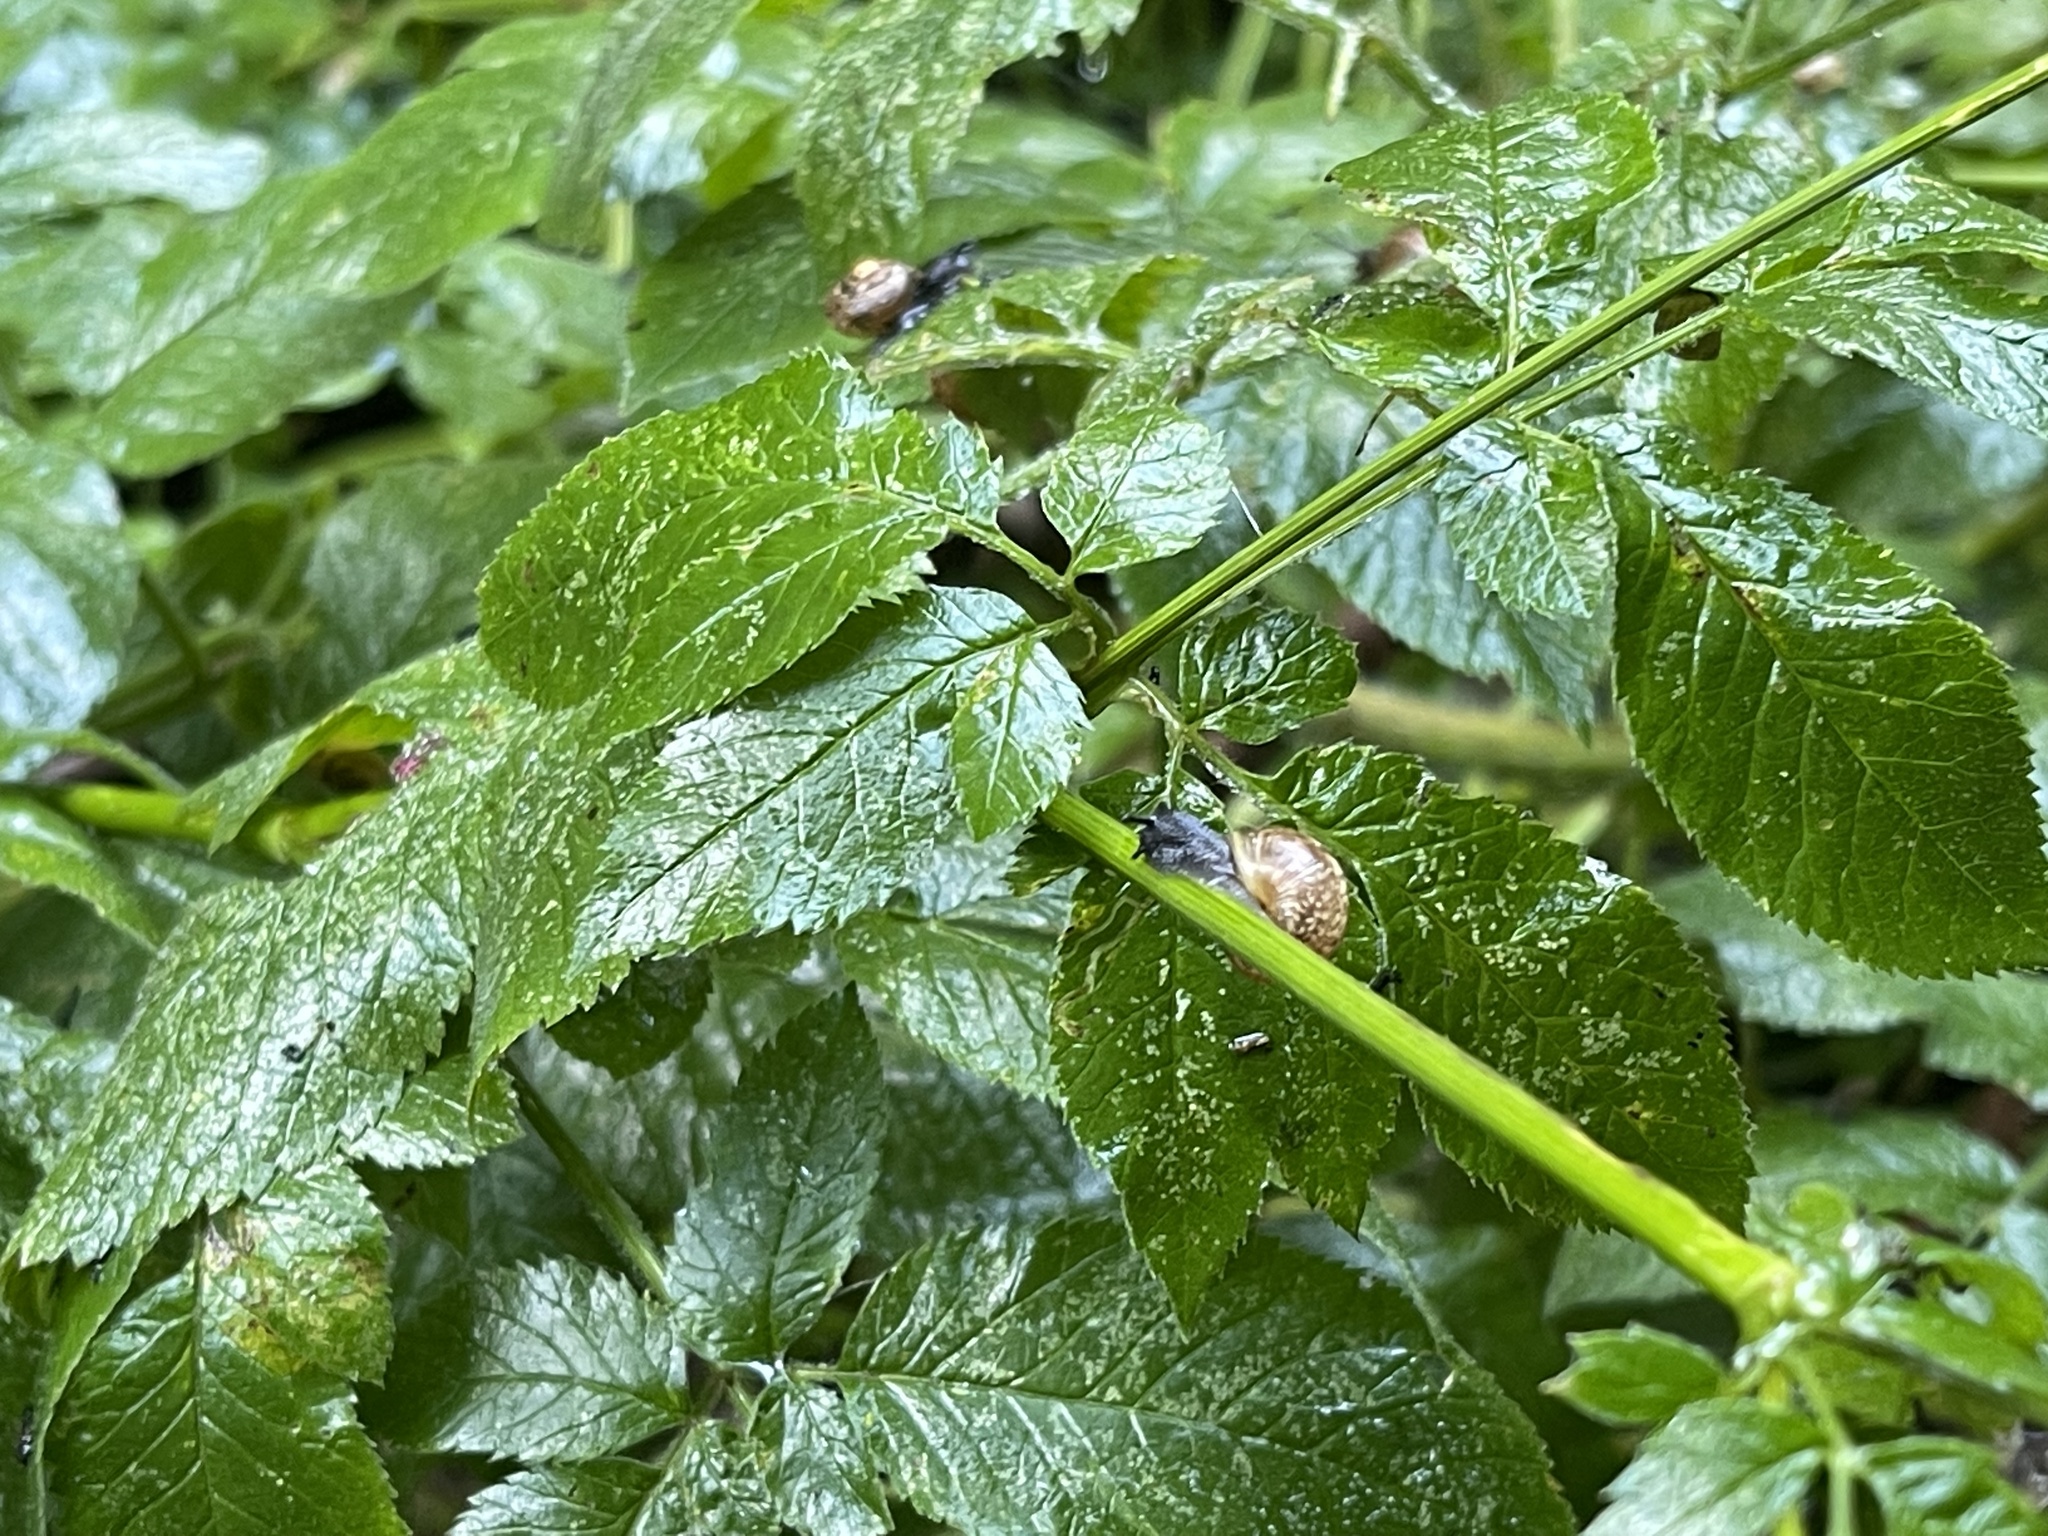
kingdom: Animalia
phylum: Mollusca
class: Gastropoda
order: Stylommatophora
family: Helicidae
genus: Arianta
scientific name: Arianta arbustorum
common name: Copse snail
